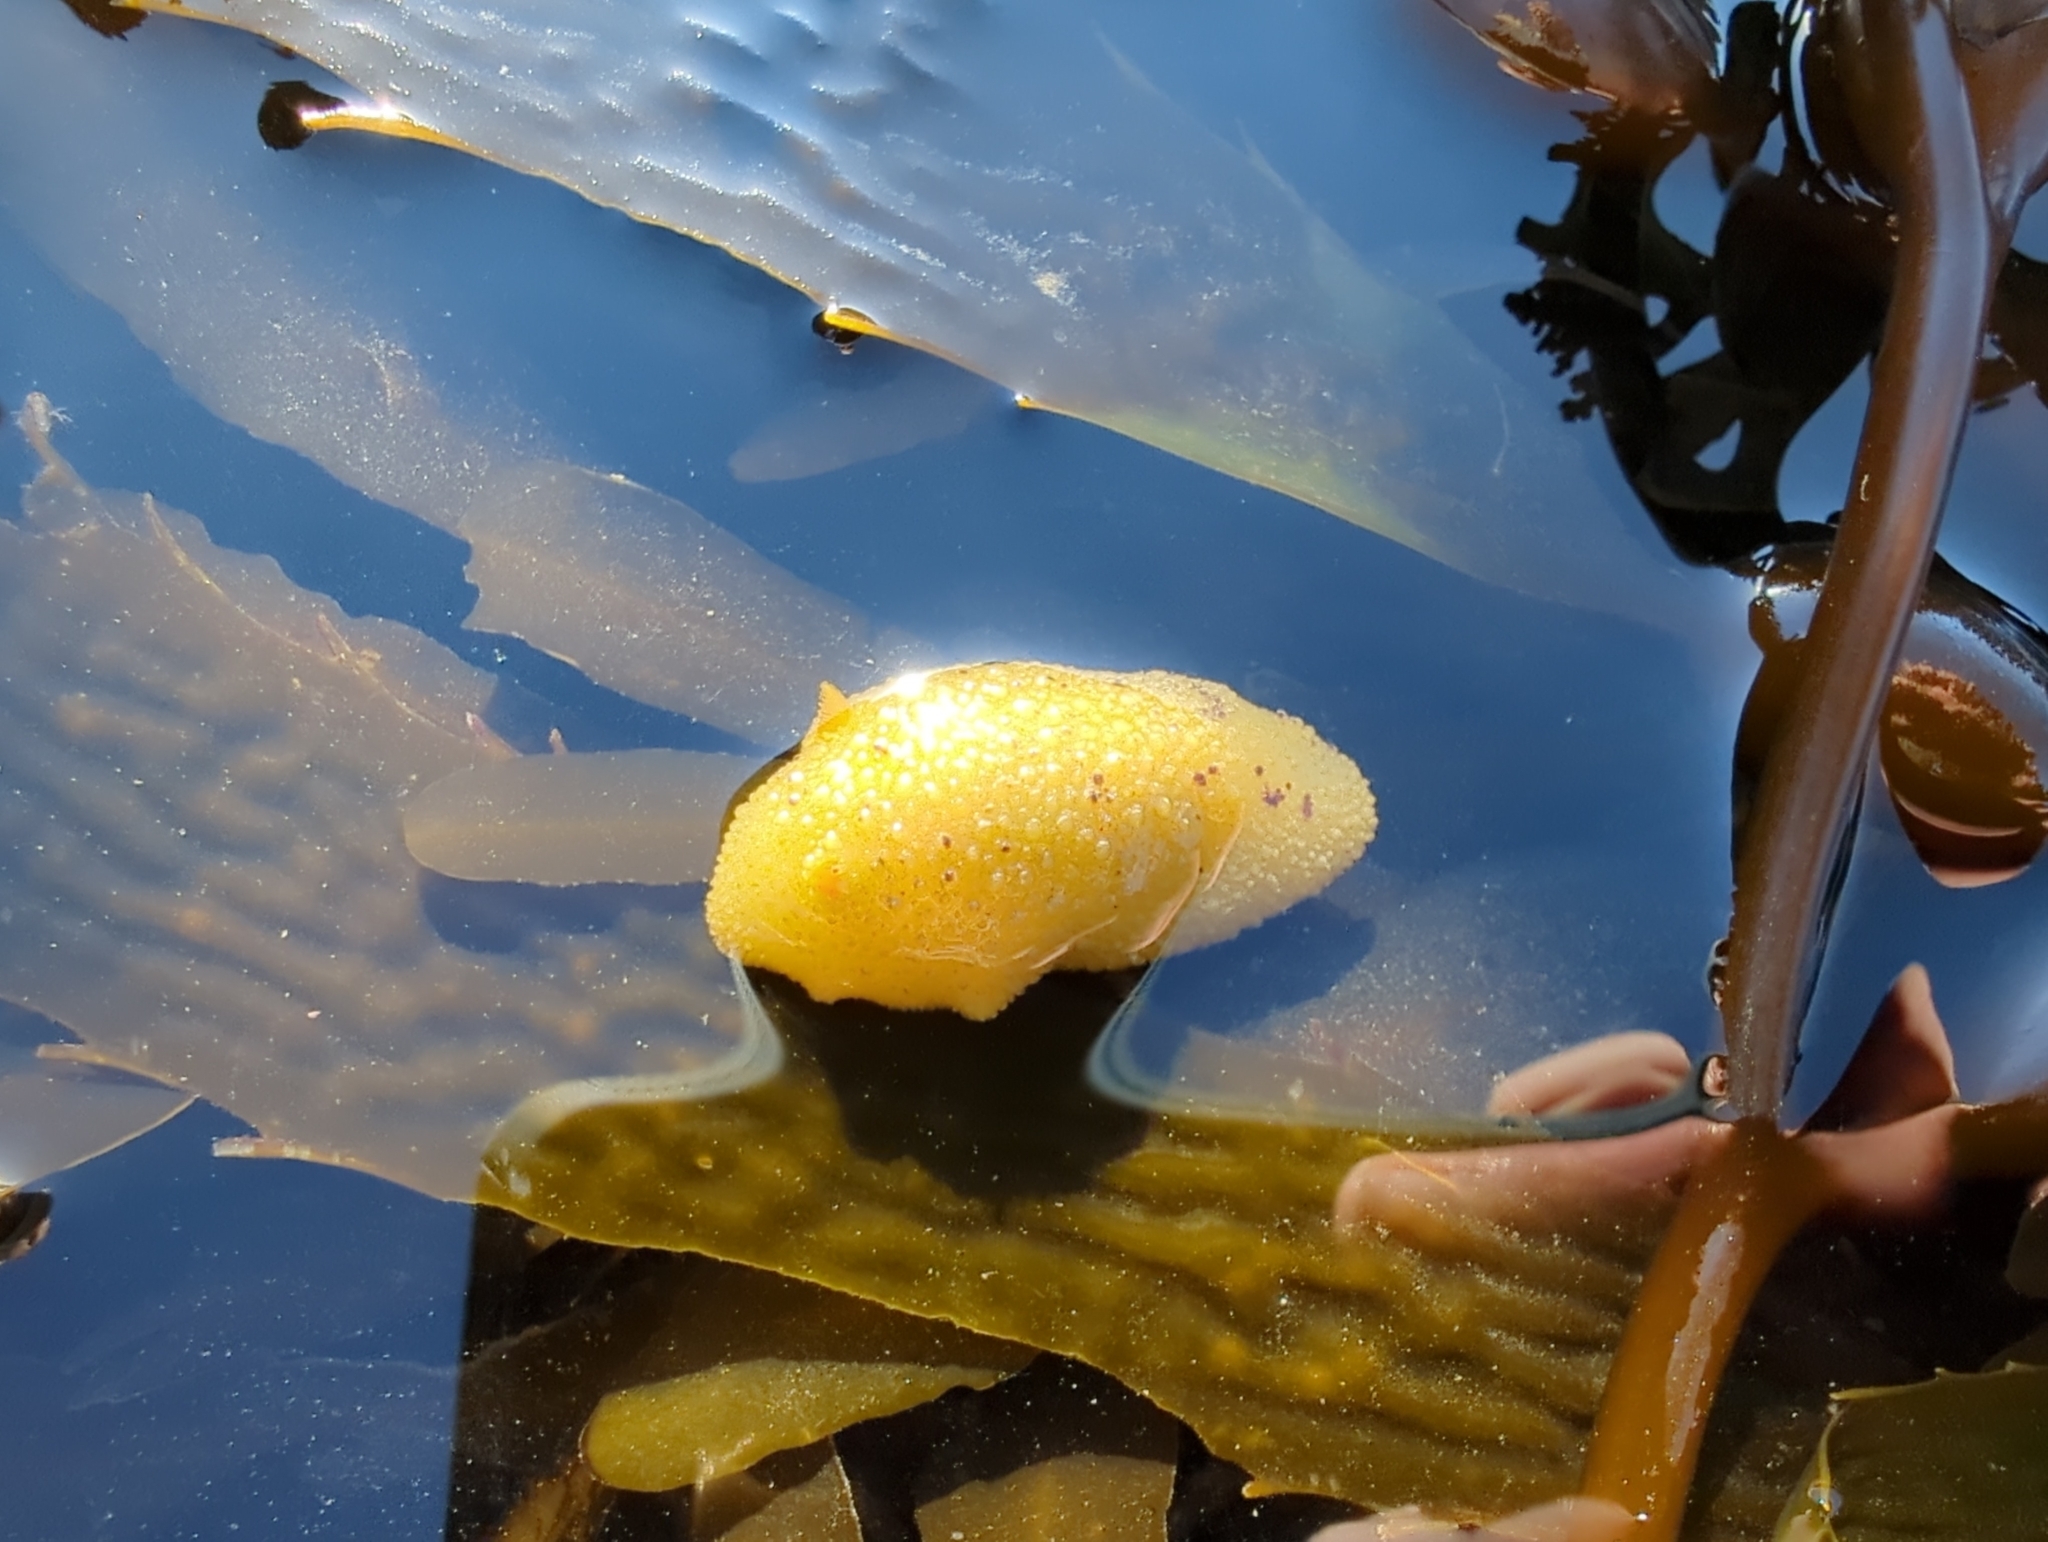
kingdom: Animalia
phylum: Mollusca
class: Gastropoda
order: Nudibranchia
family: Dorididae
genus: Doris
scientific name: Doris montereyensis
